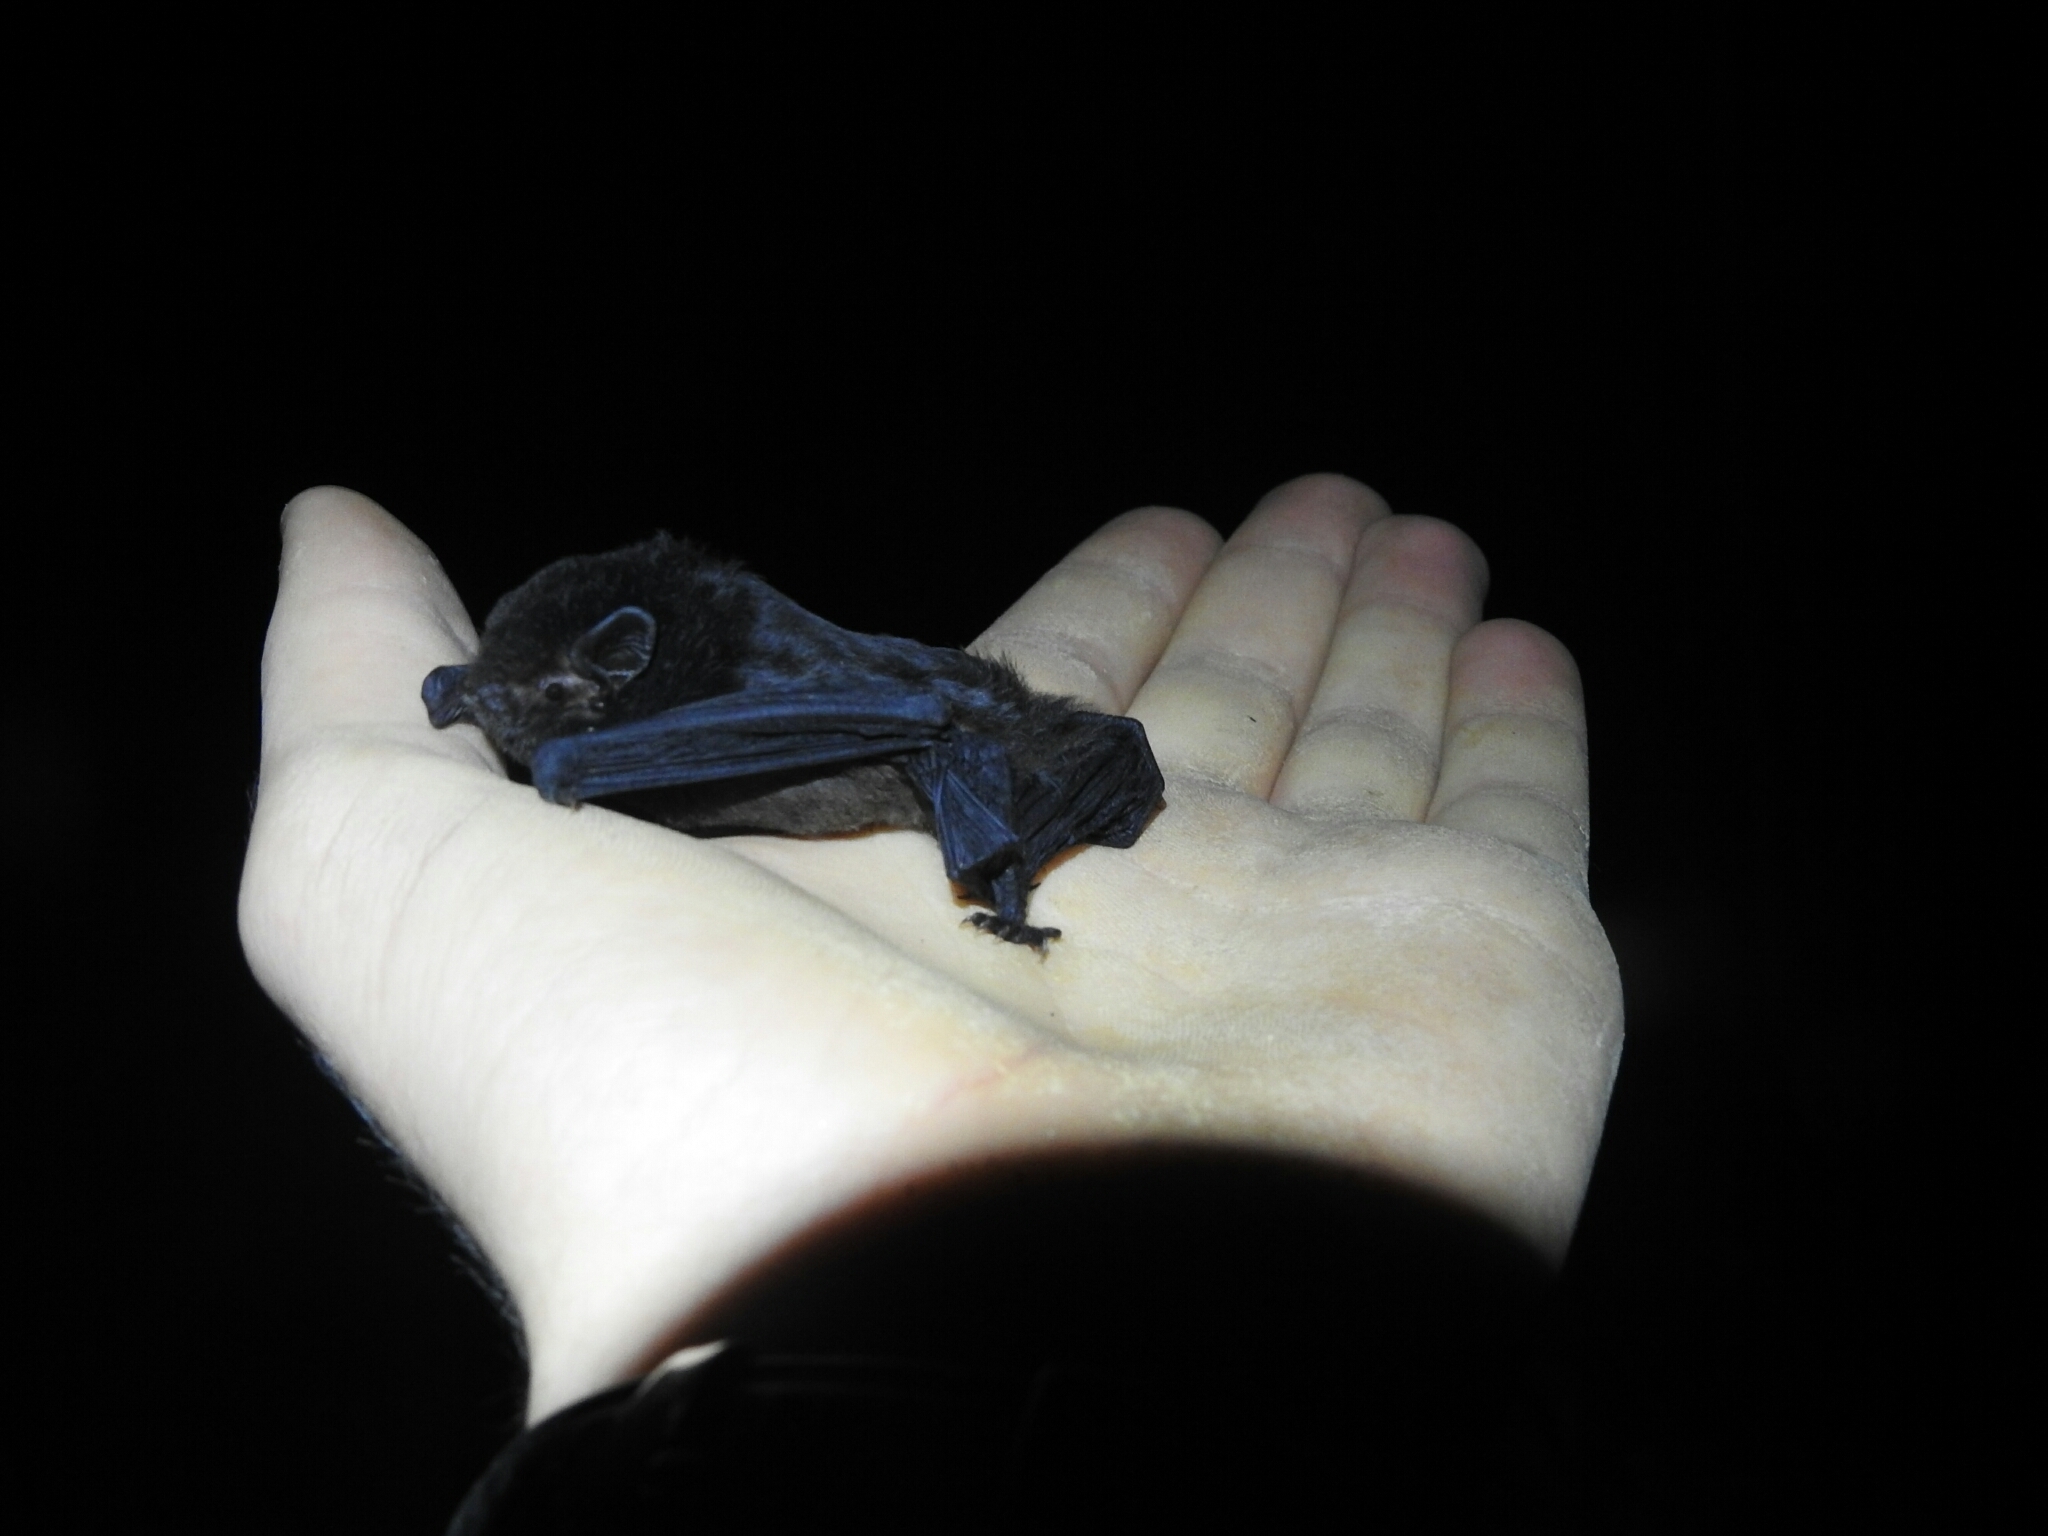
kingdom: Animalia
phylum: Chordata
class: Mammalia
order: Chiroptera
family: Vespertilionidae
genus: Chalinolobus
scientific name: Chalinolobus tuberculatus
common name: Long-tailed wattled bat
